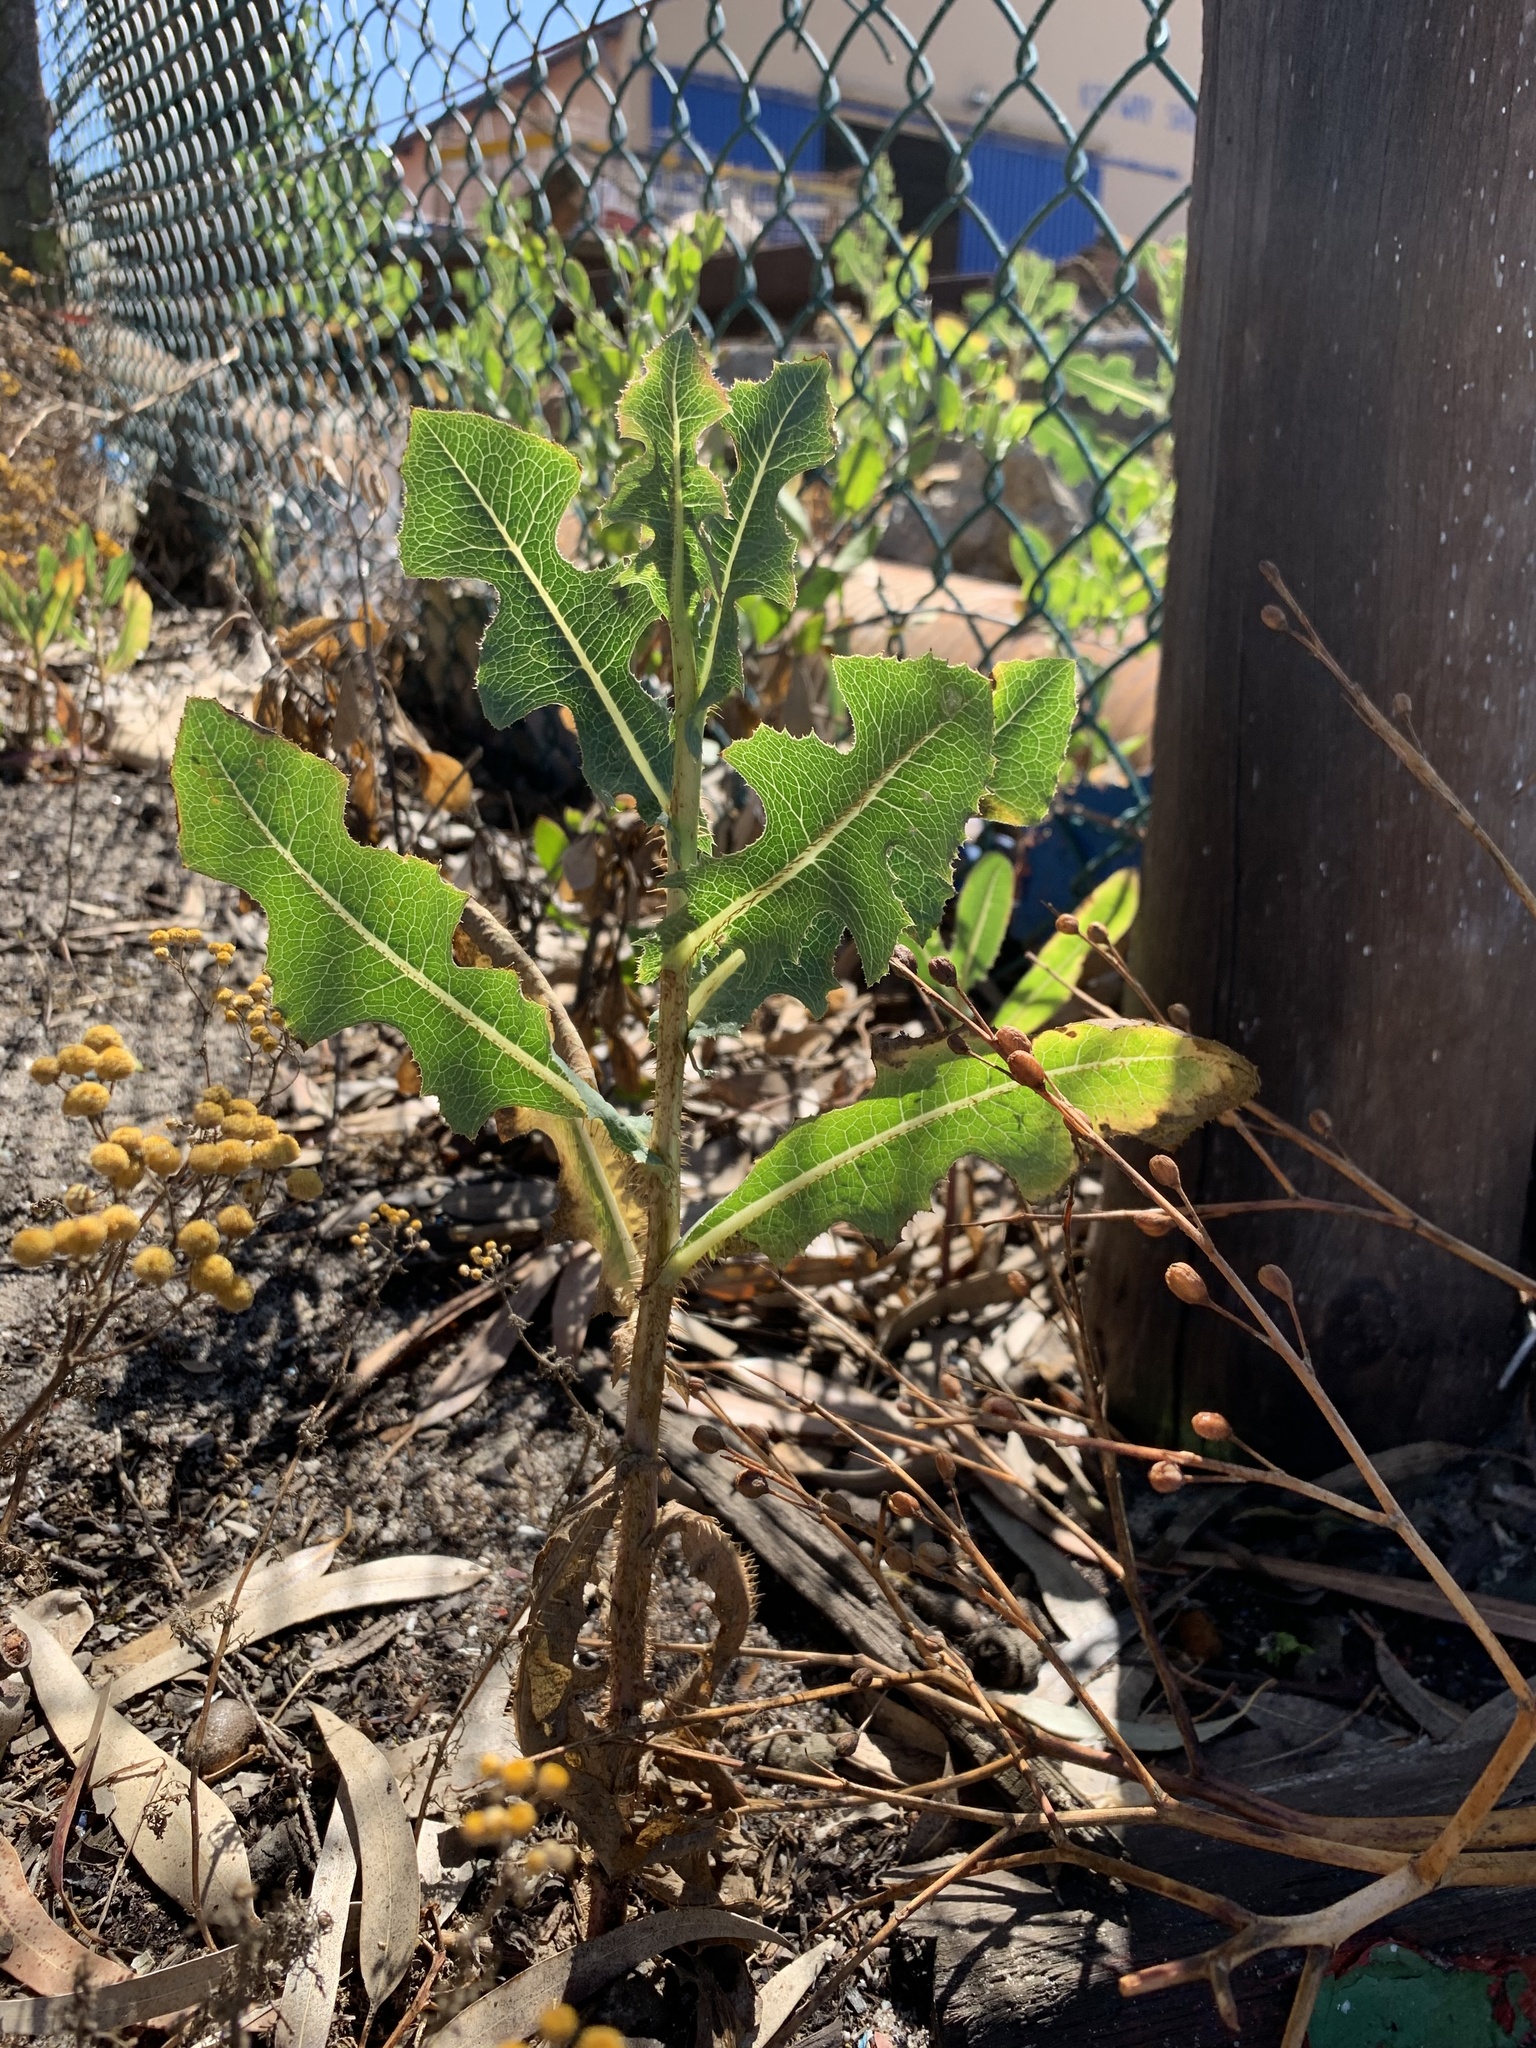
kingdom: Plantae
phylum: Tracheophyta
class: Magnoliopsida
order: Asterales
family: Asteraceae
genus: Lactuca
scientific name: Lactuca serriola
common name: Prickly lettuce
